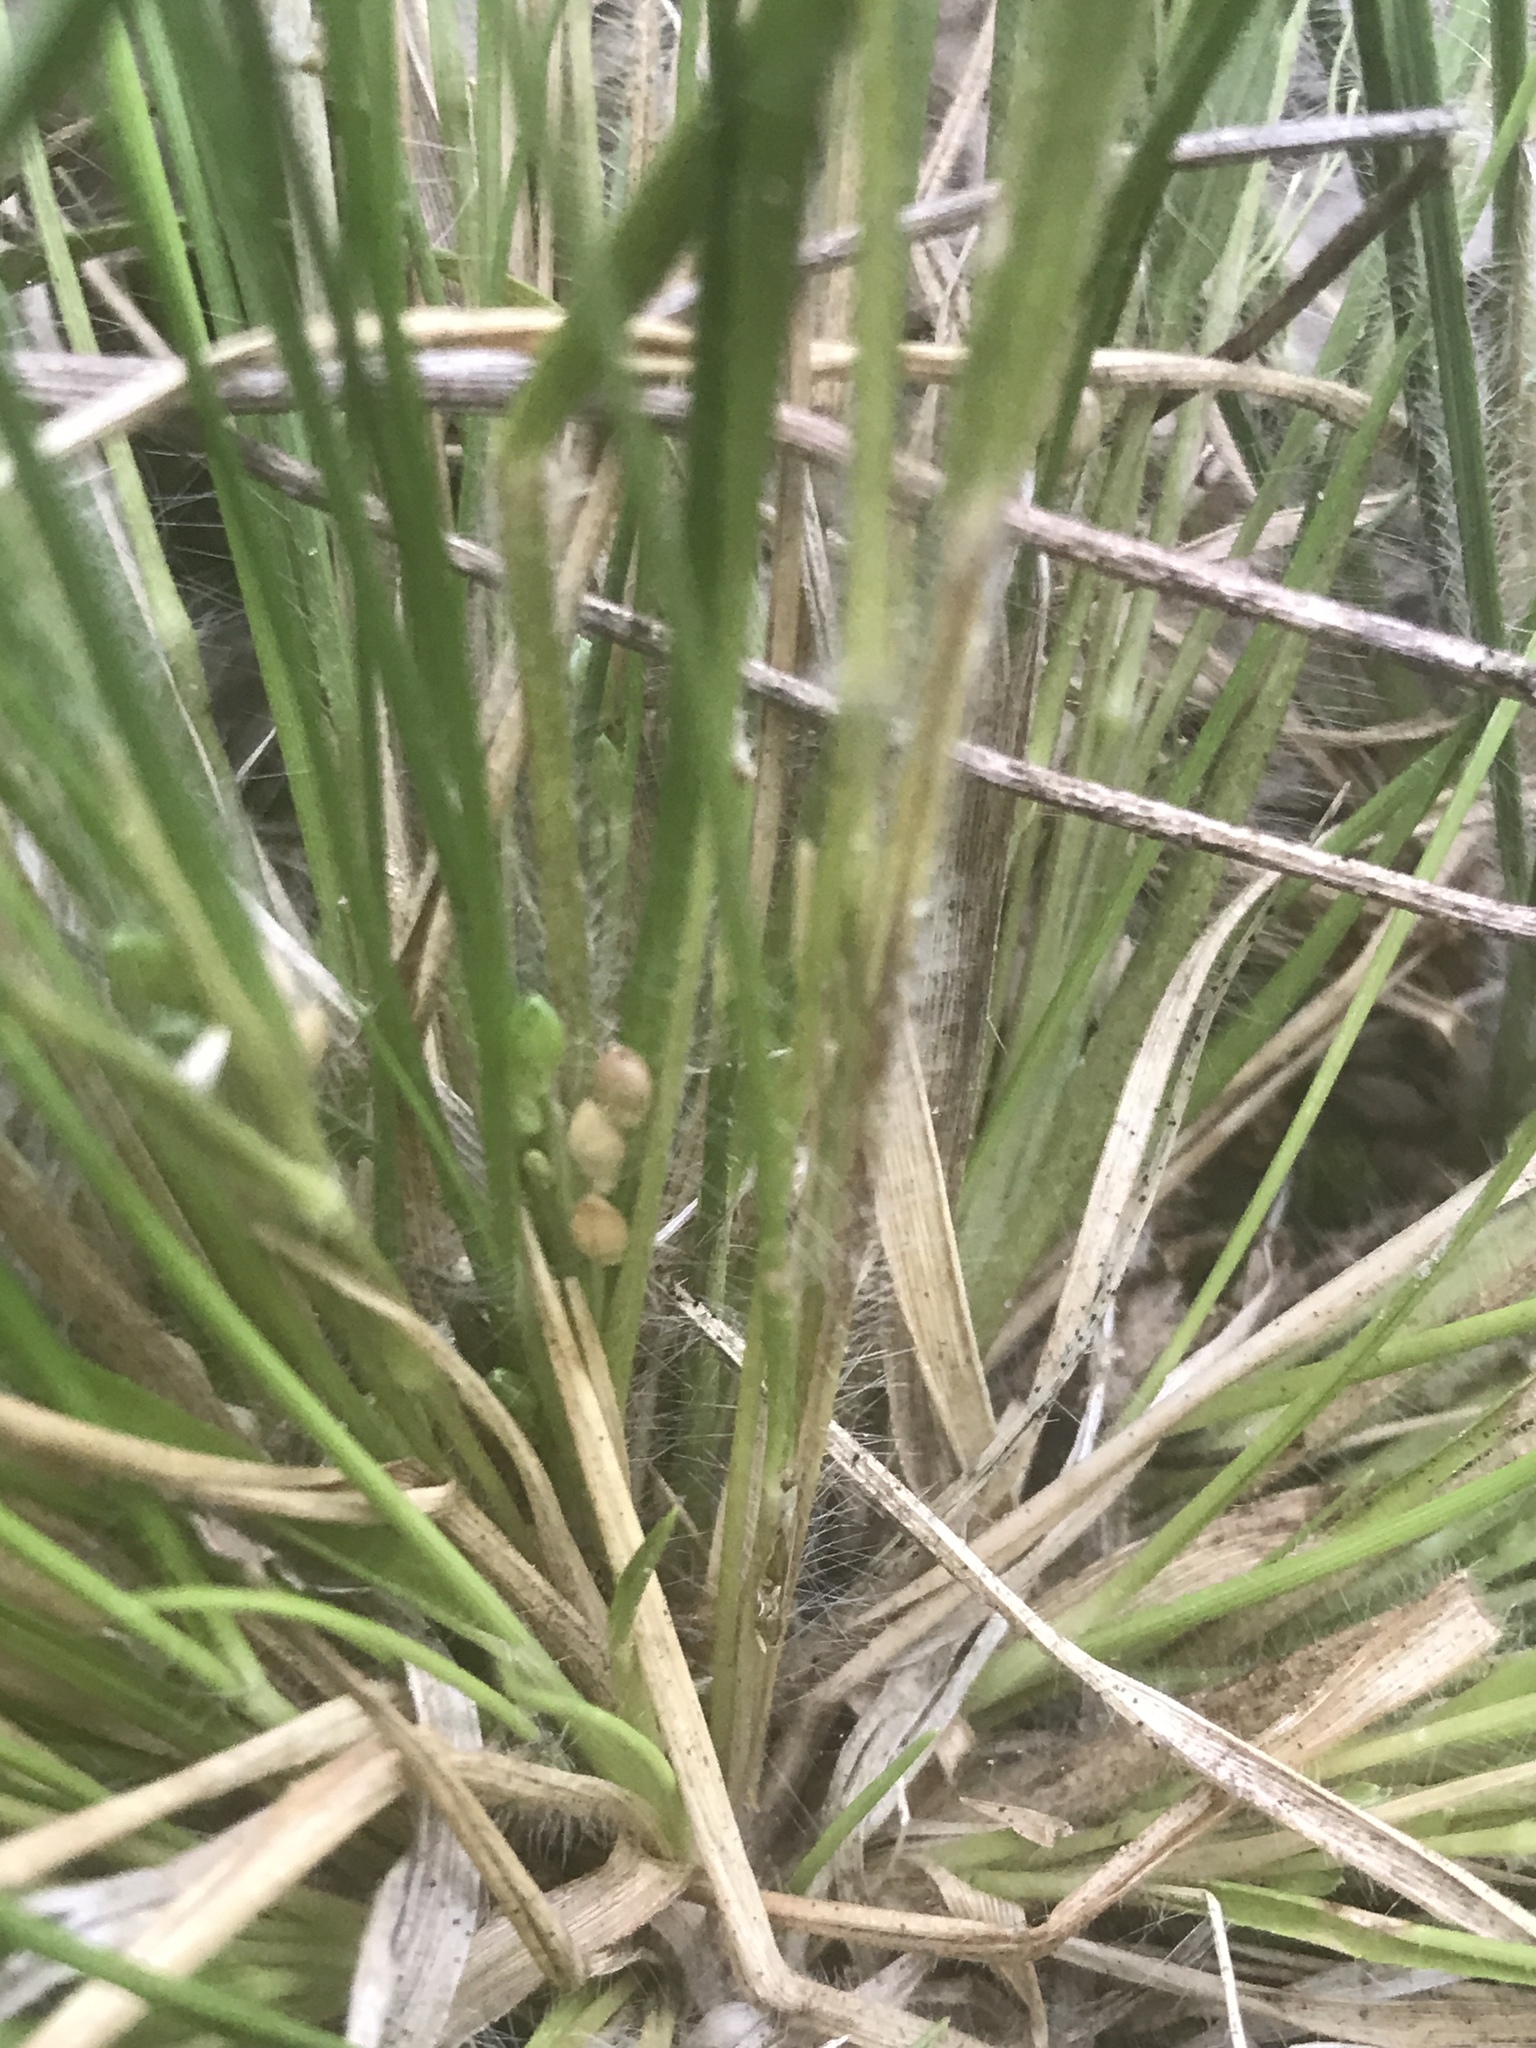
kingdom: Plantae
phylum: Tracheophyta
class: Liliopsida
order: Poales
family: Poaceae
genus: Dichanthelium
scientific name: Dichanthelium depauperatum
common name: Depauperate panicgrass
